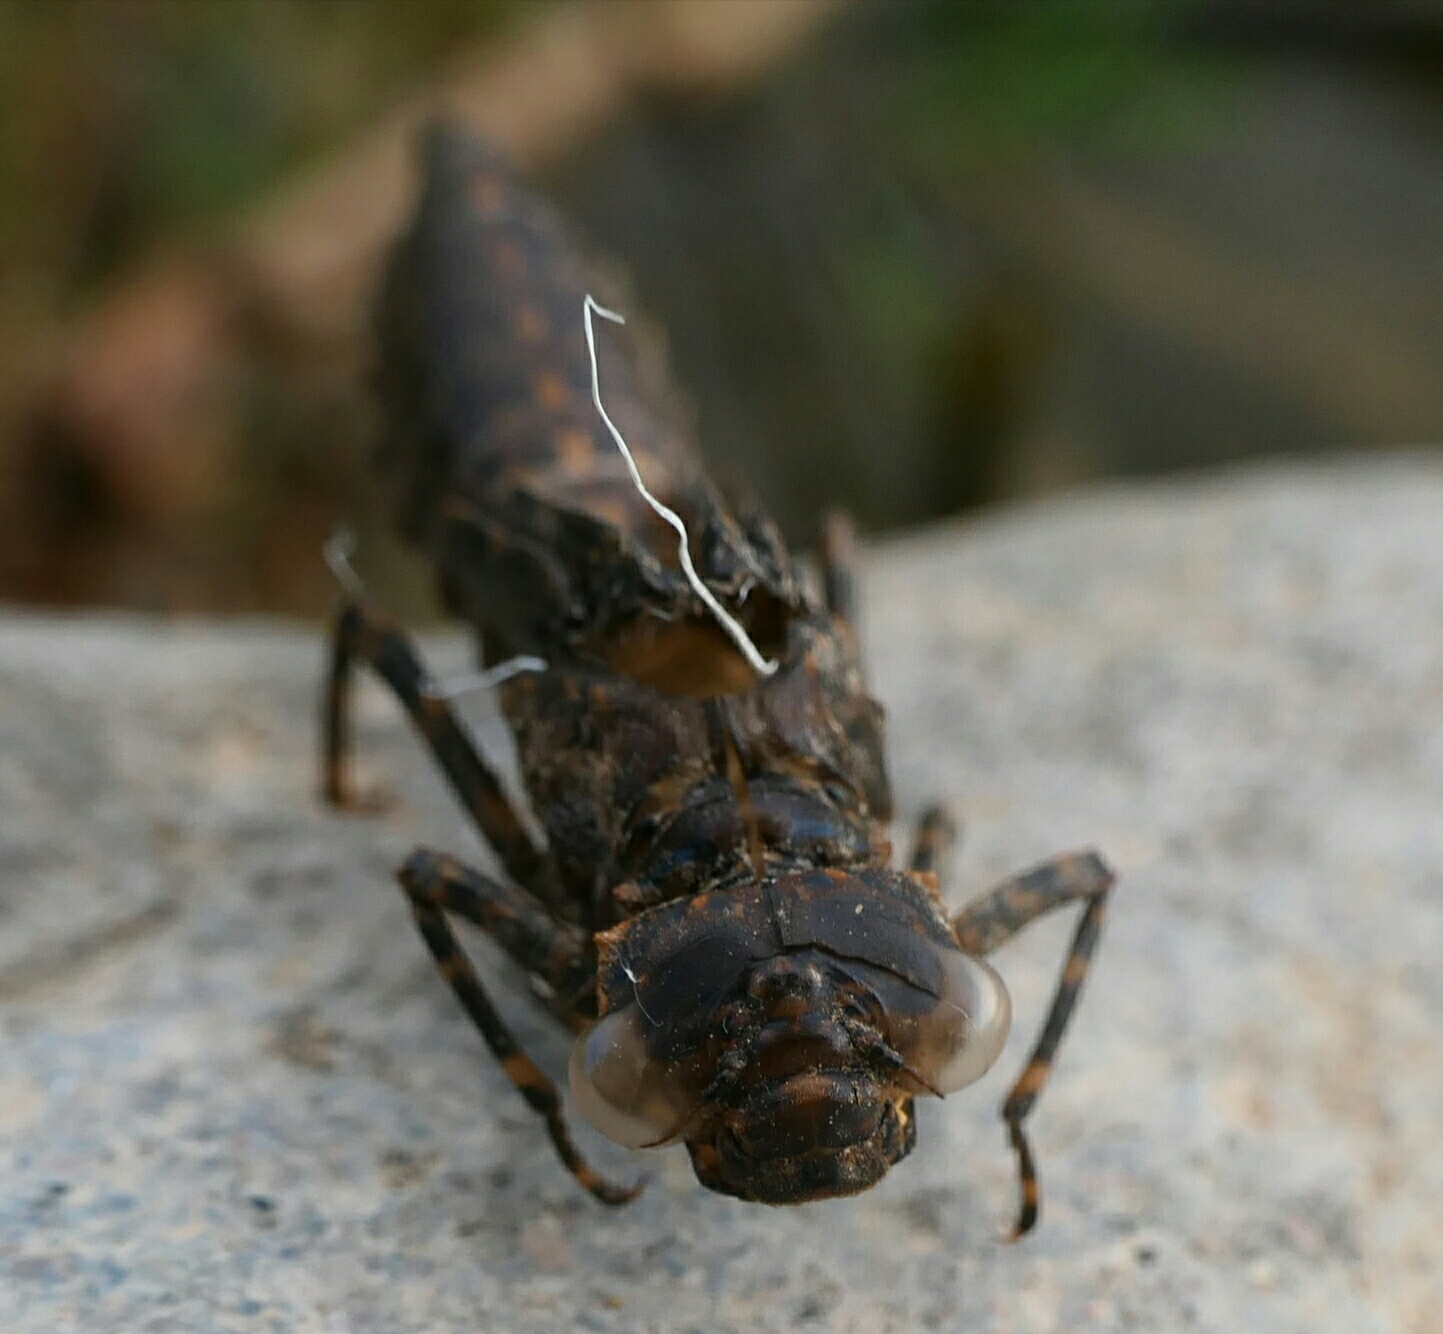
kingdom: Animalia
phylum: Arthropoda
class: Insecta
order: Odonata
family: Aeshnidae
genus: Boyeria
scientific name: Boyeria irene
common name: Western spectre
